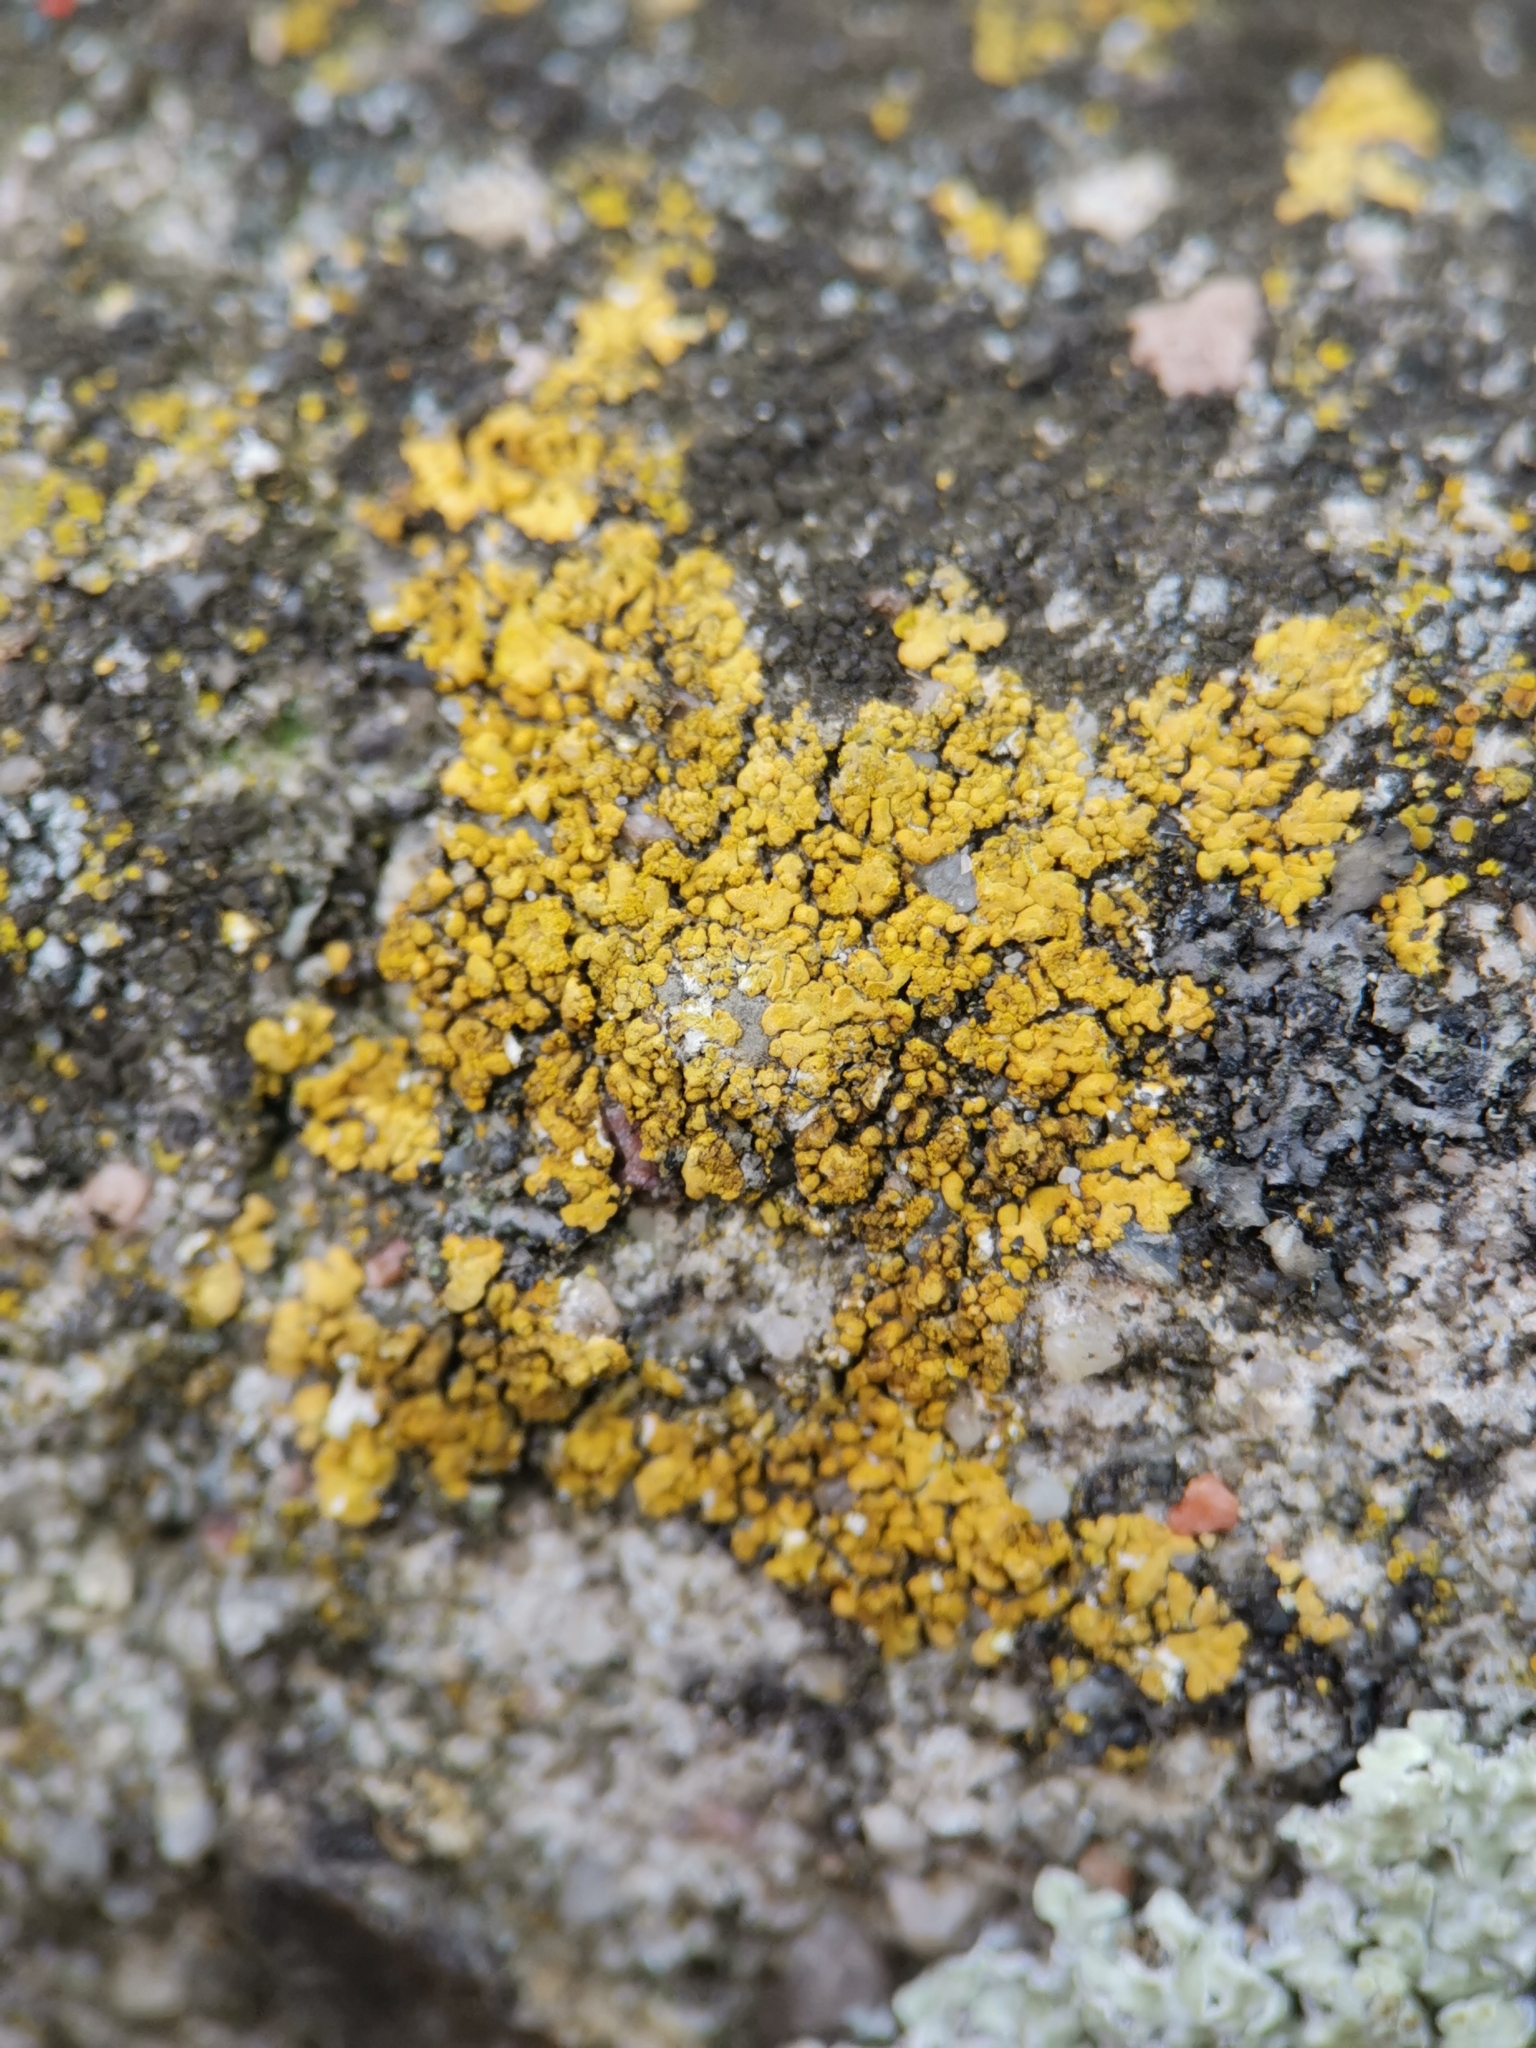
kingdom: Fungi
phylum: Ascomycota
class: Lecanoromycetes
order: Teloschistales
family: Teloschistaceae
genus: Calogaya
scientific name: Calogaya decipiens
